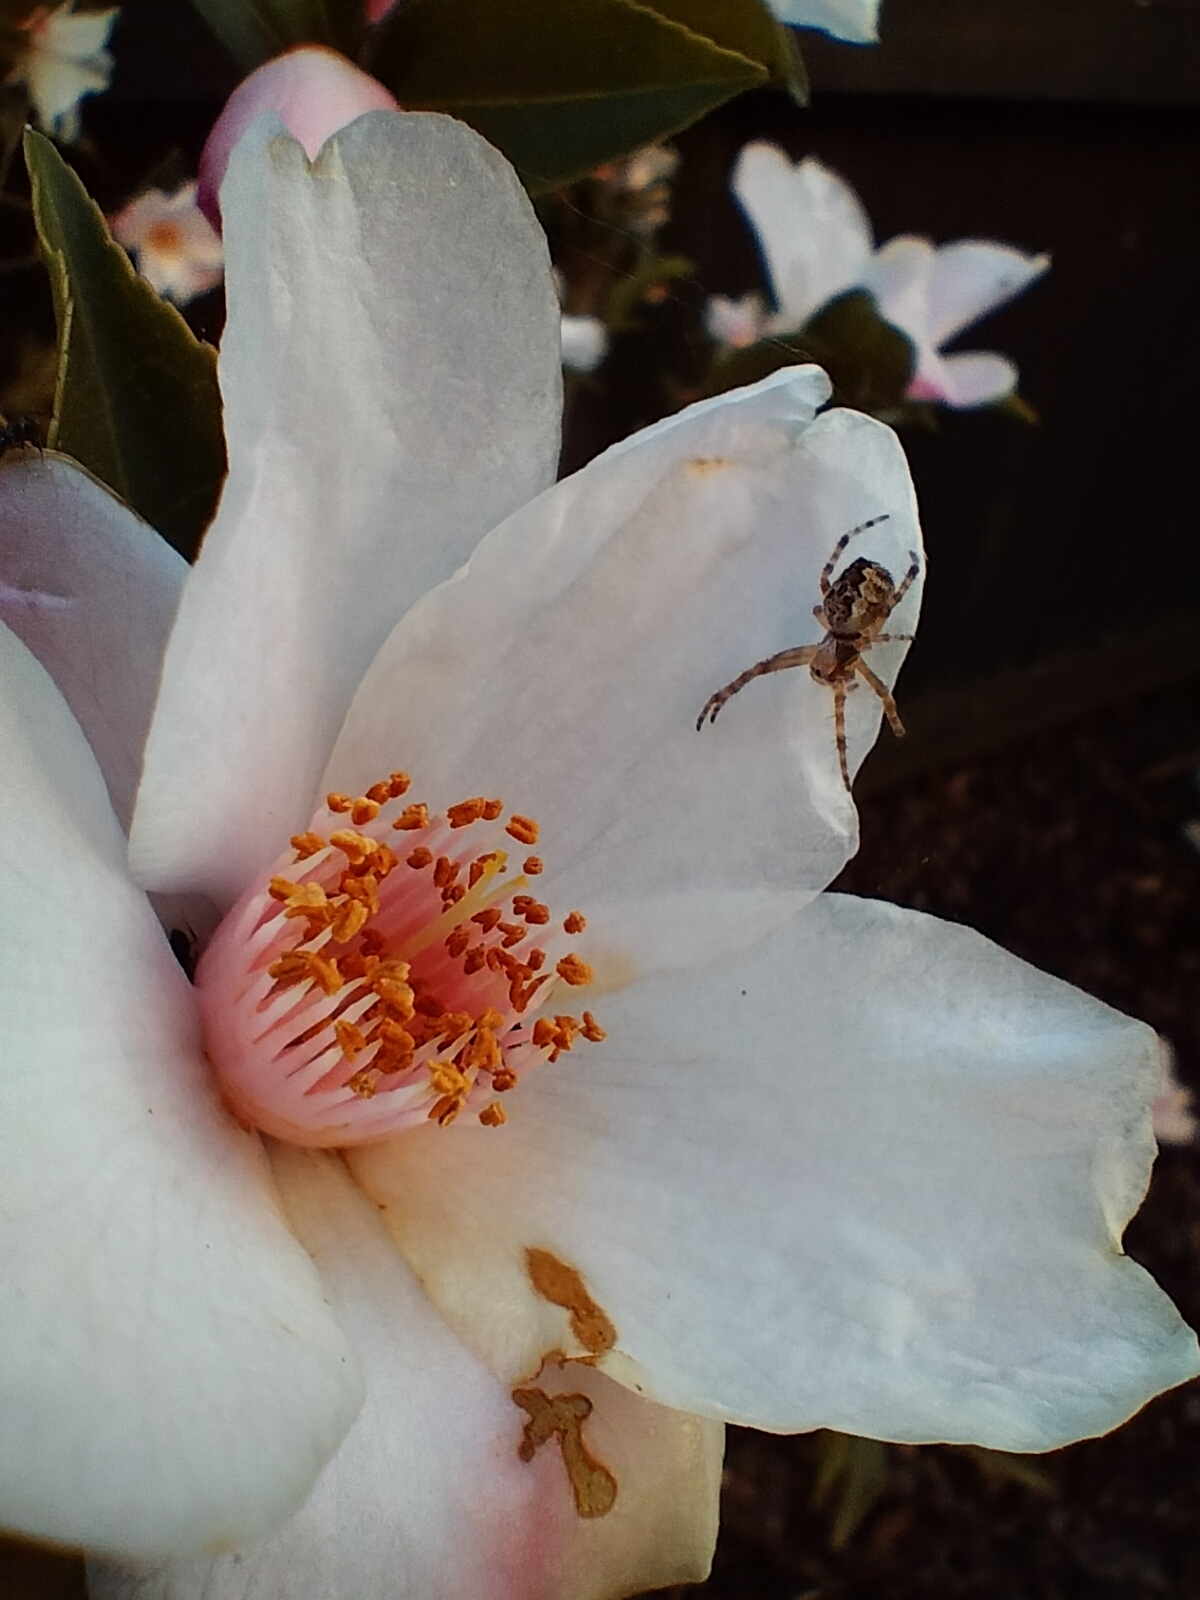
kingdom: Animalia
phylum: Arthropoda
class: Arachnida
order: Araneae
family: Araneidae
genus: Salsa
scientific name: Salsa fuliginata
